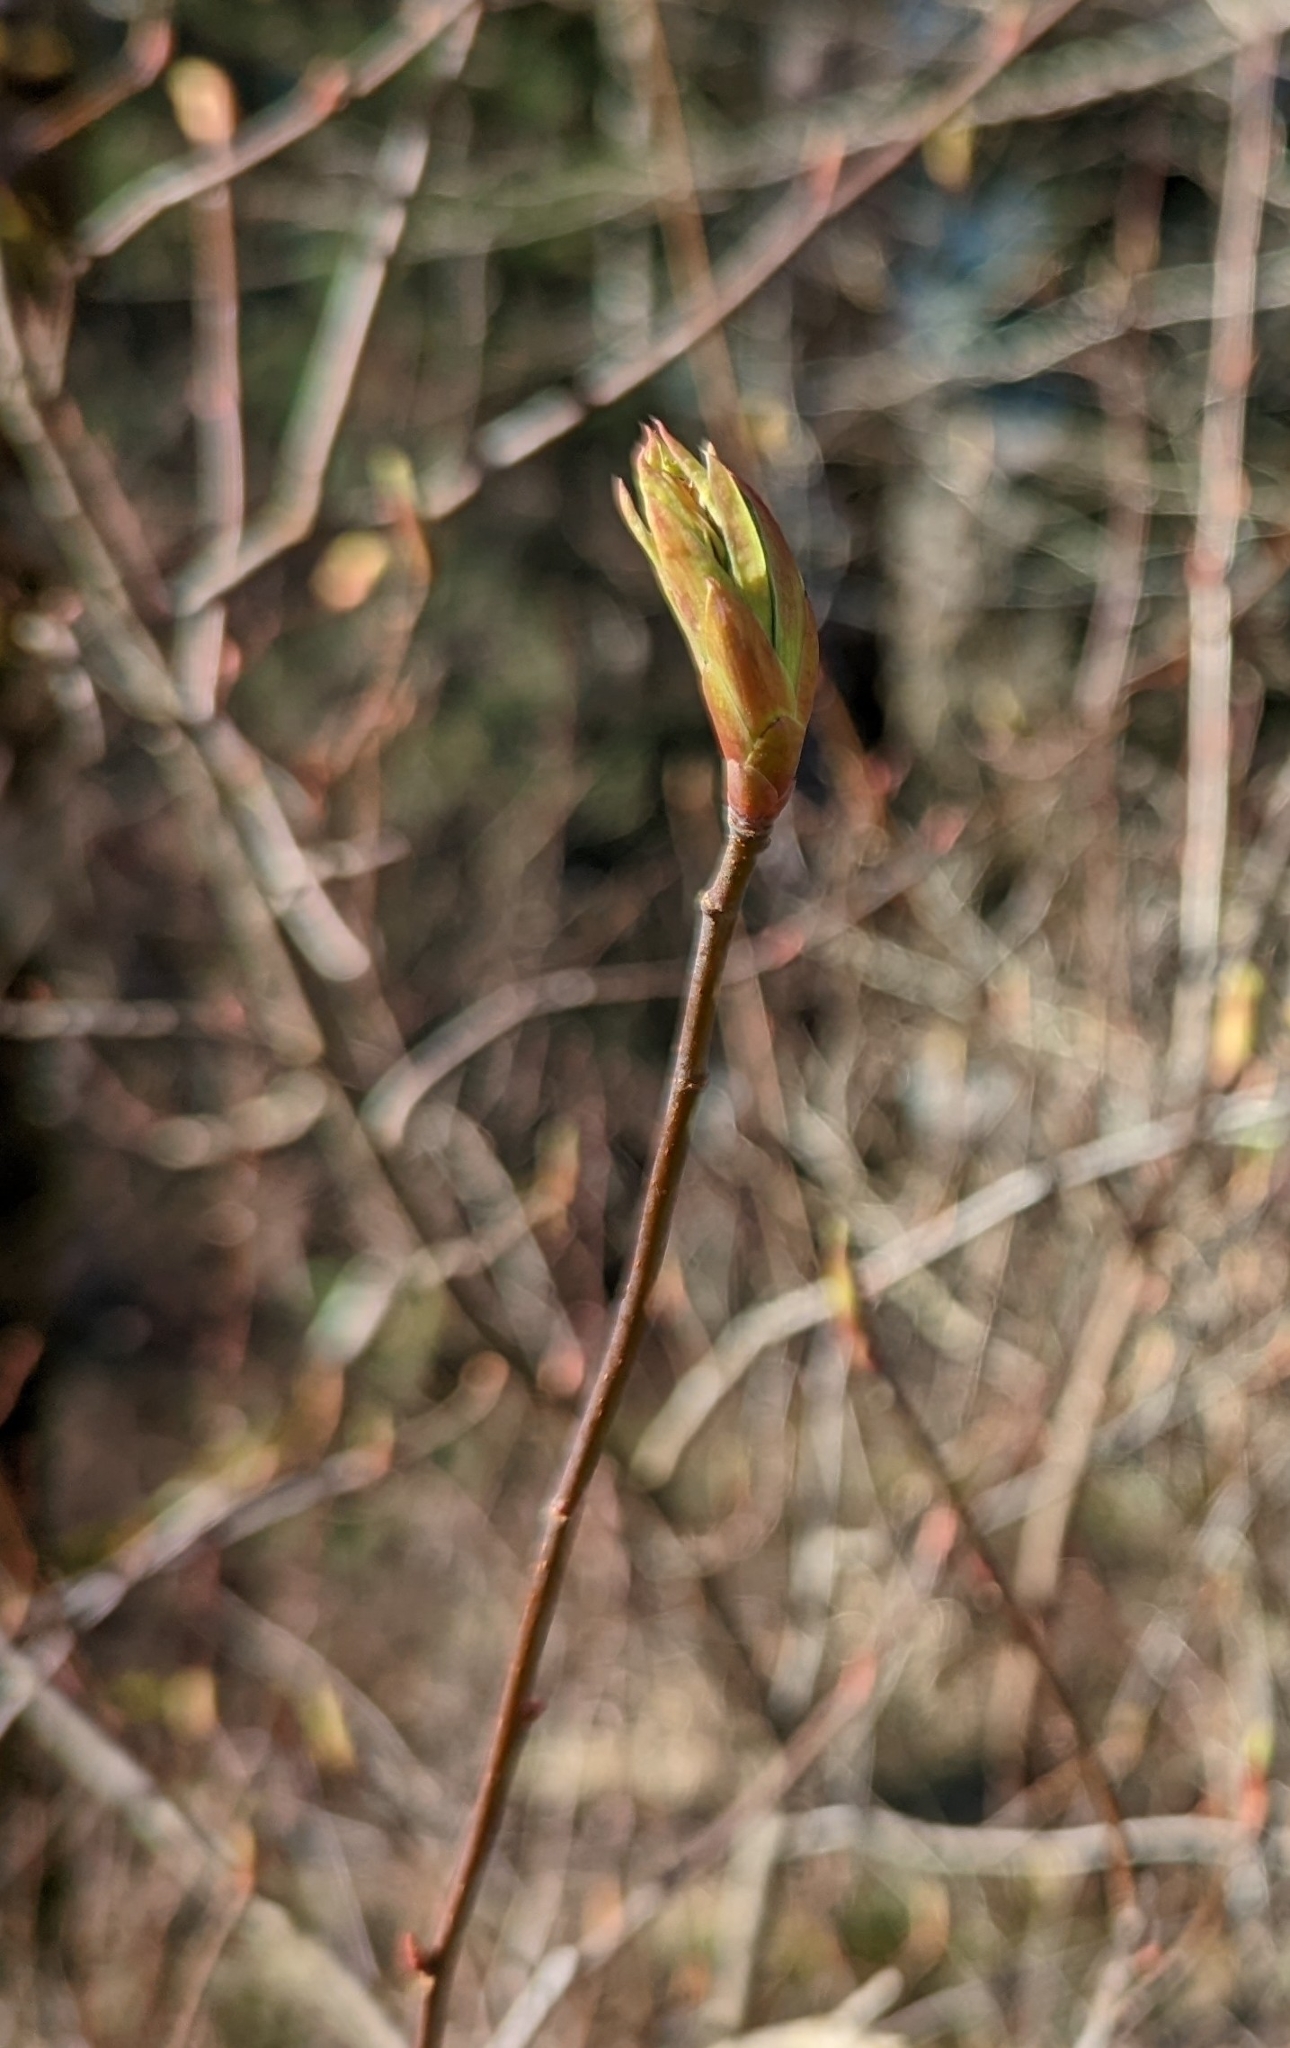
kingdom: Plantae
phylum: Tracheophyta
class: Magnoliopsida
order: Rosales
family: Rosaceae
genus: Oemleria
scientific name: Oemleria cerasiformis
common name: Osoberry
